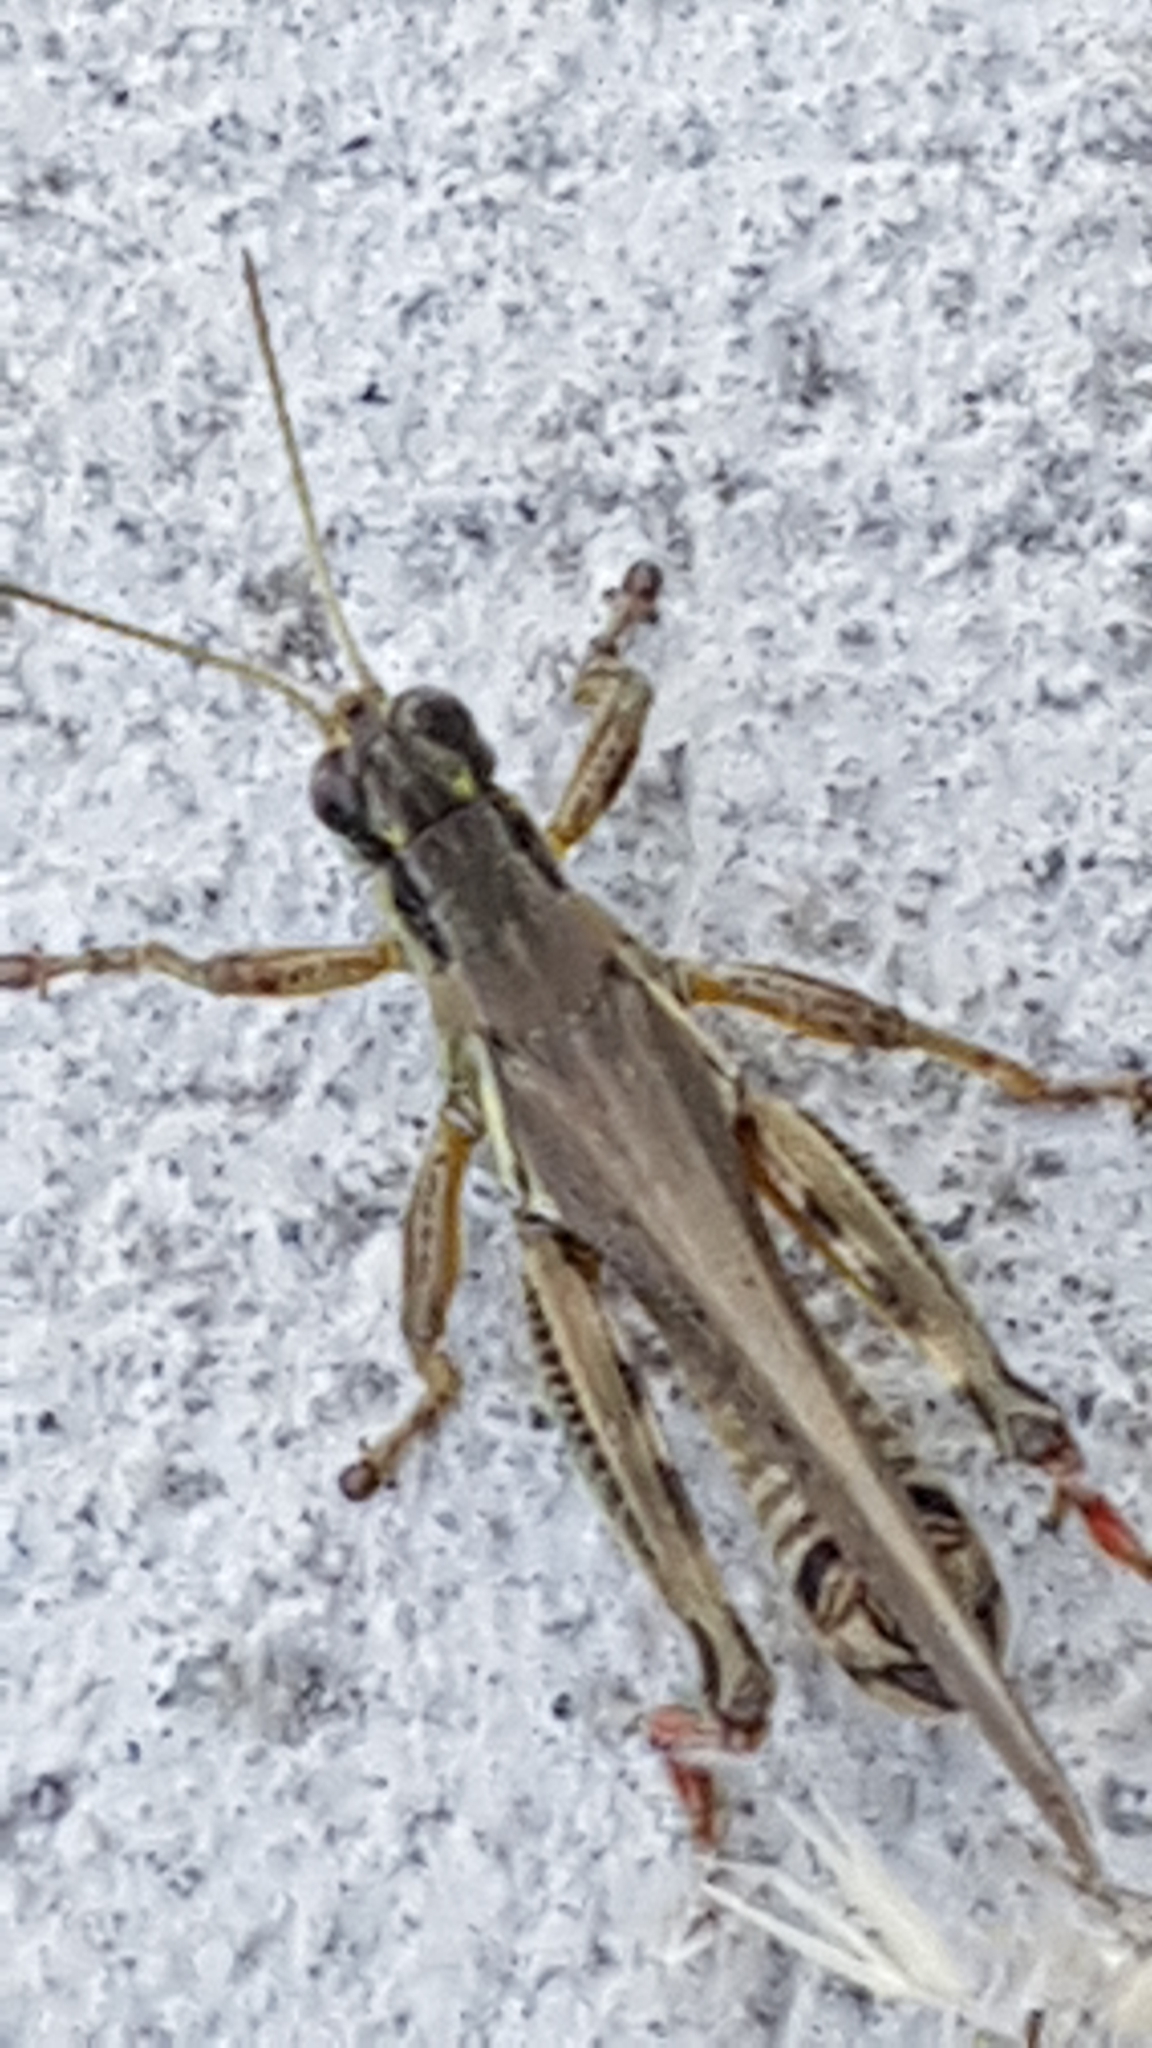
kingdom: Animalia
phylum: Arthropoda
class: Insecta
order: Orthoptera
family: Acrididae
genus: Melanoplus
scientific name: Melanoplus femurrubrum
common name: Red-legged grasshopper
